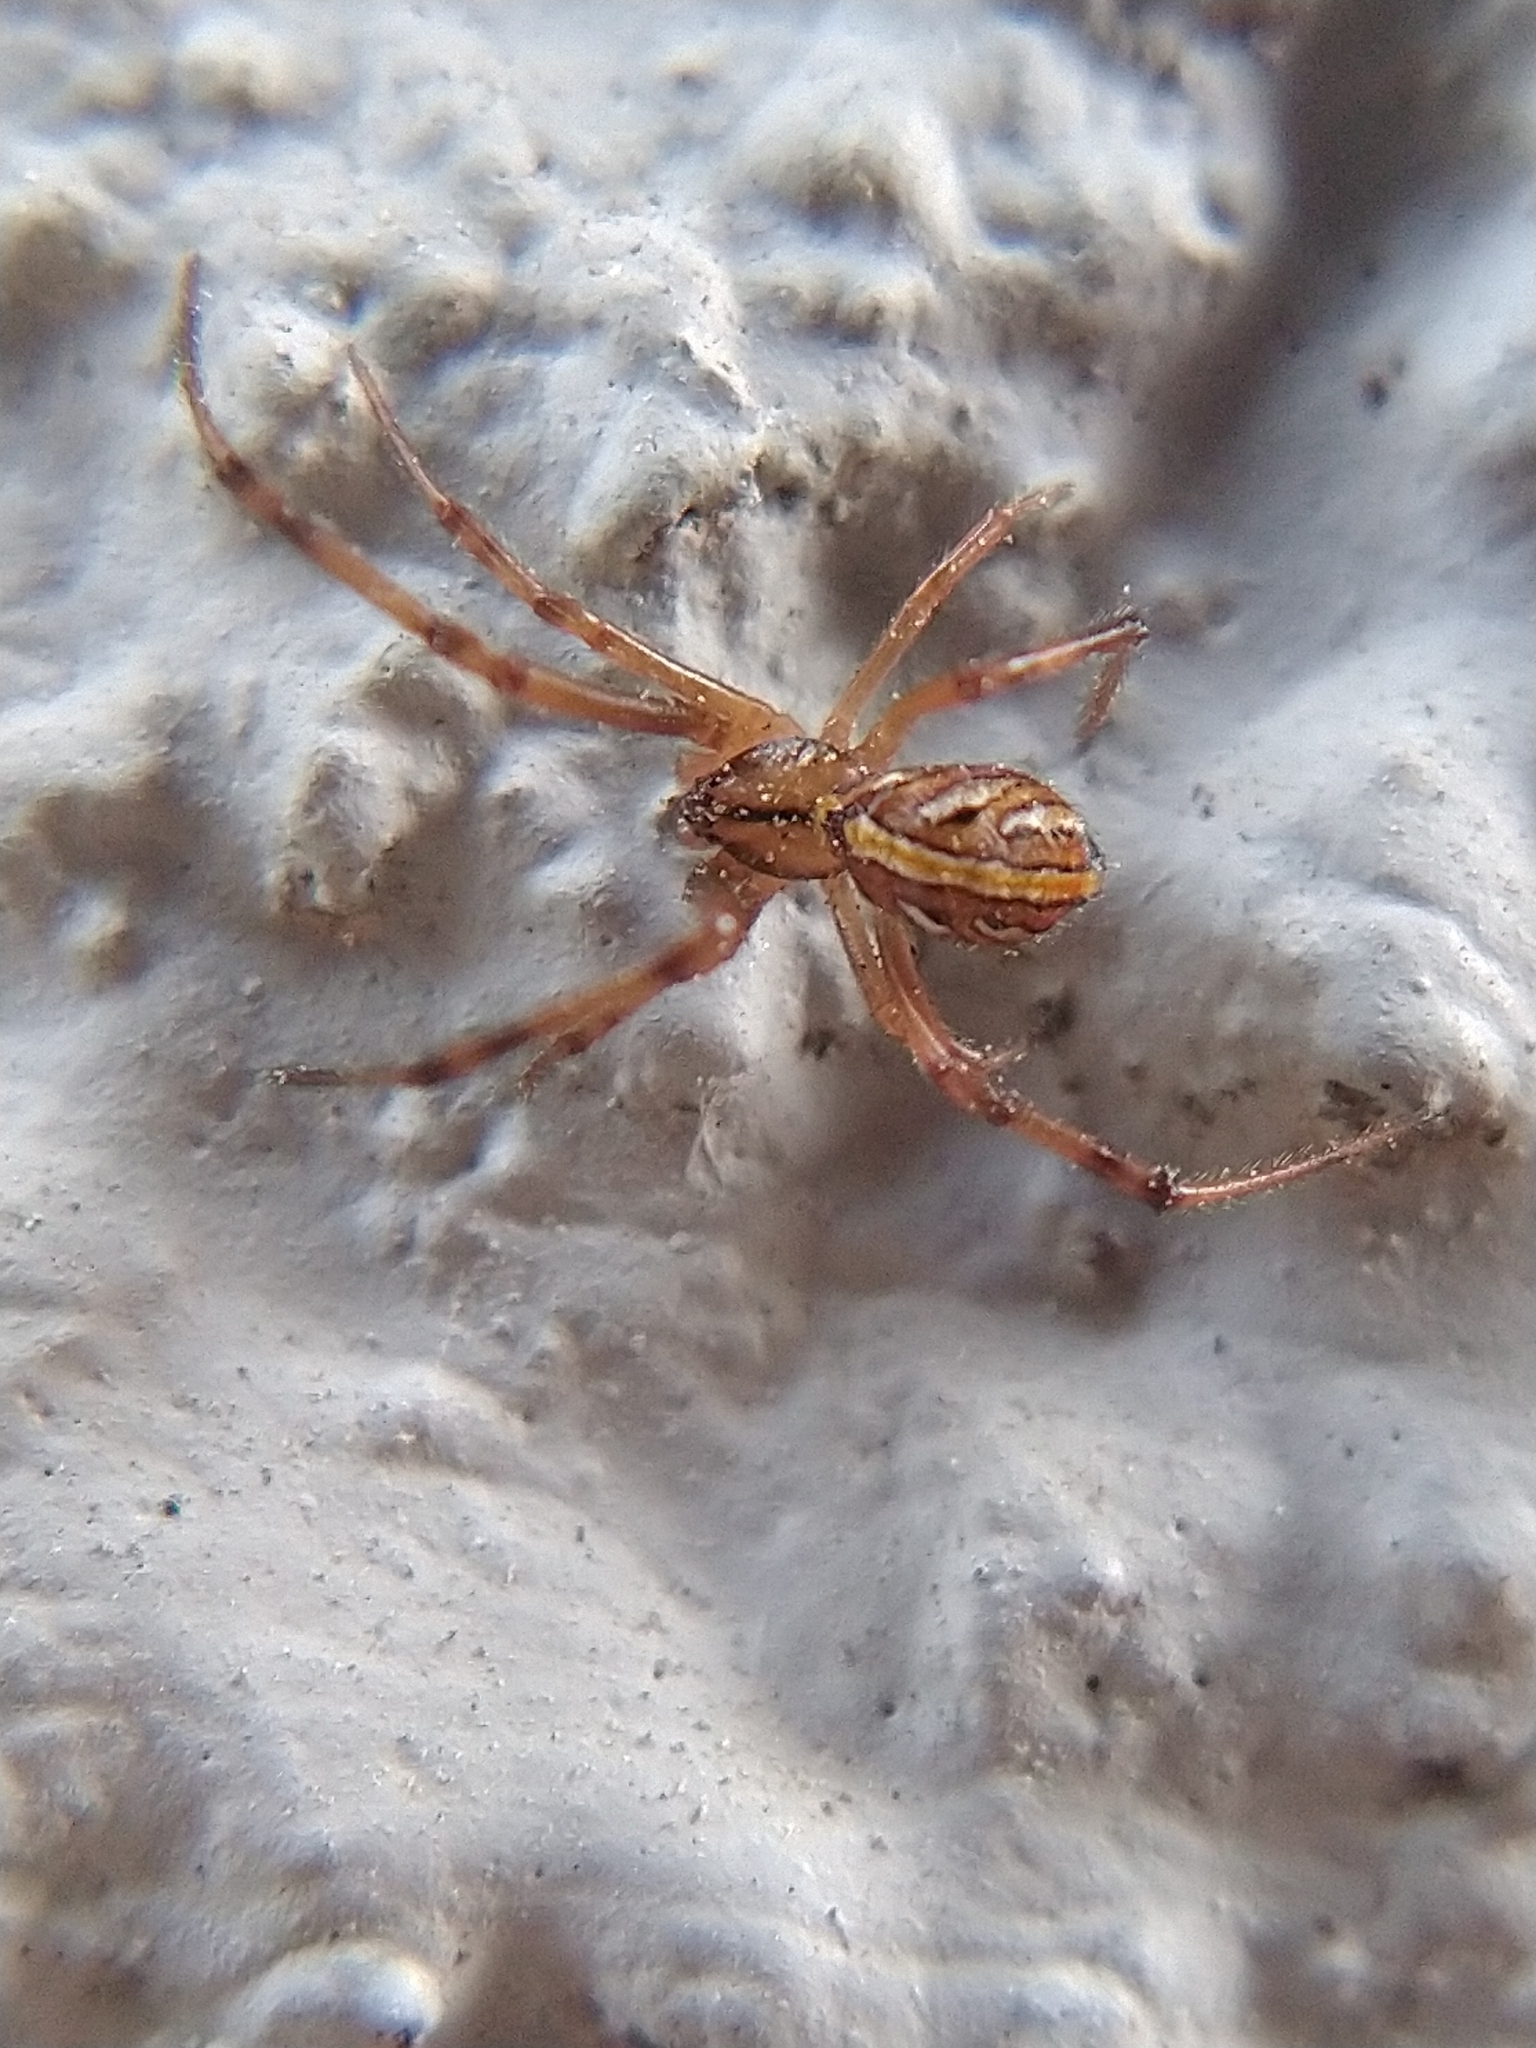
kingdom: Animalia
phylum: Arthropoda
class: Arachnida
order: Araneae
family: Theridiidae
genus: Latrodectus
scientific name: Latrodectus hesperus
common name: Western black widow
